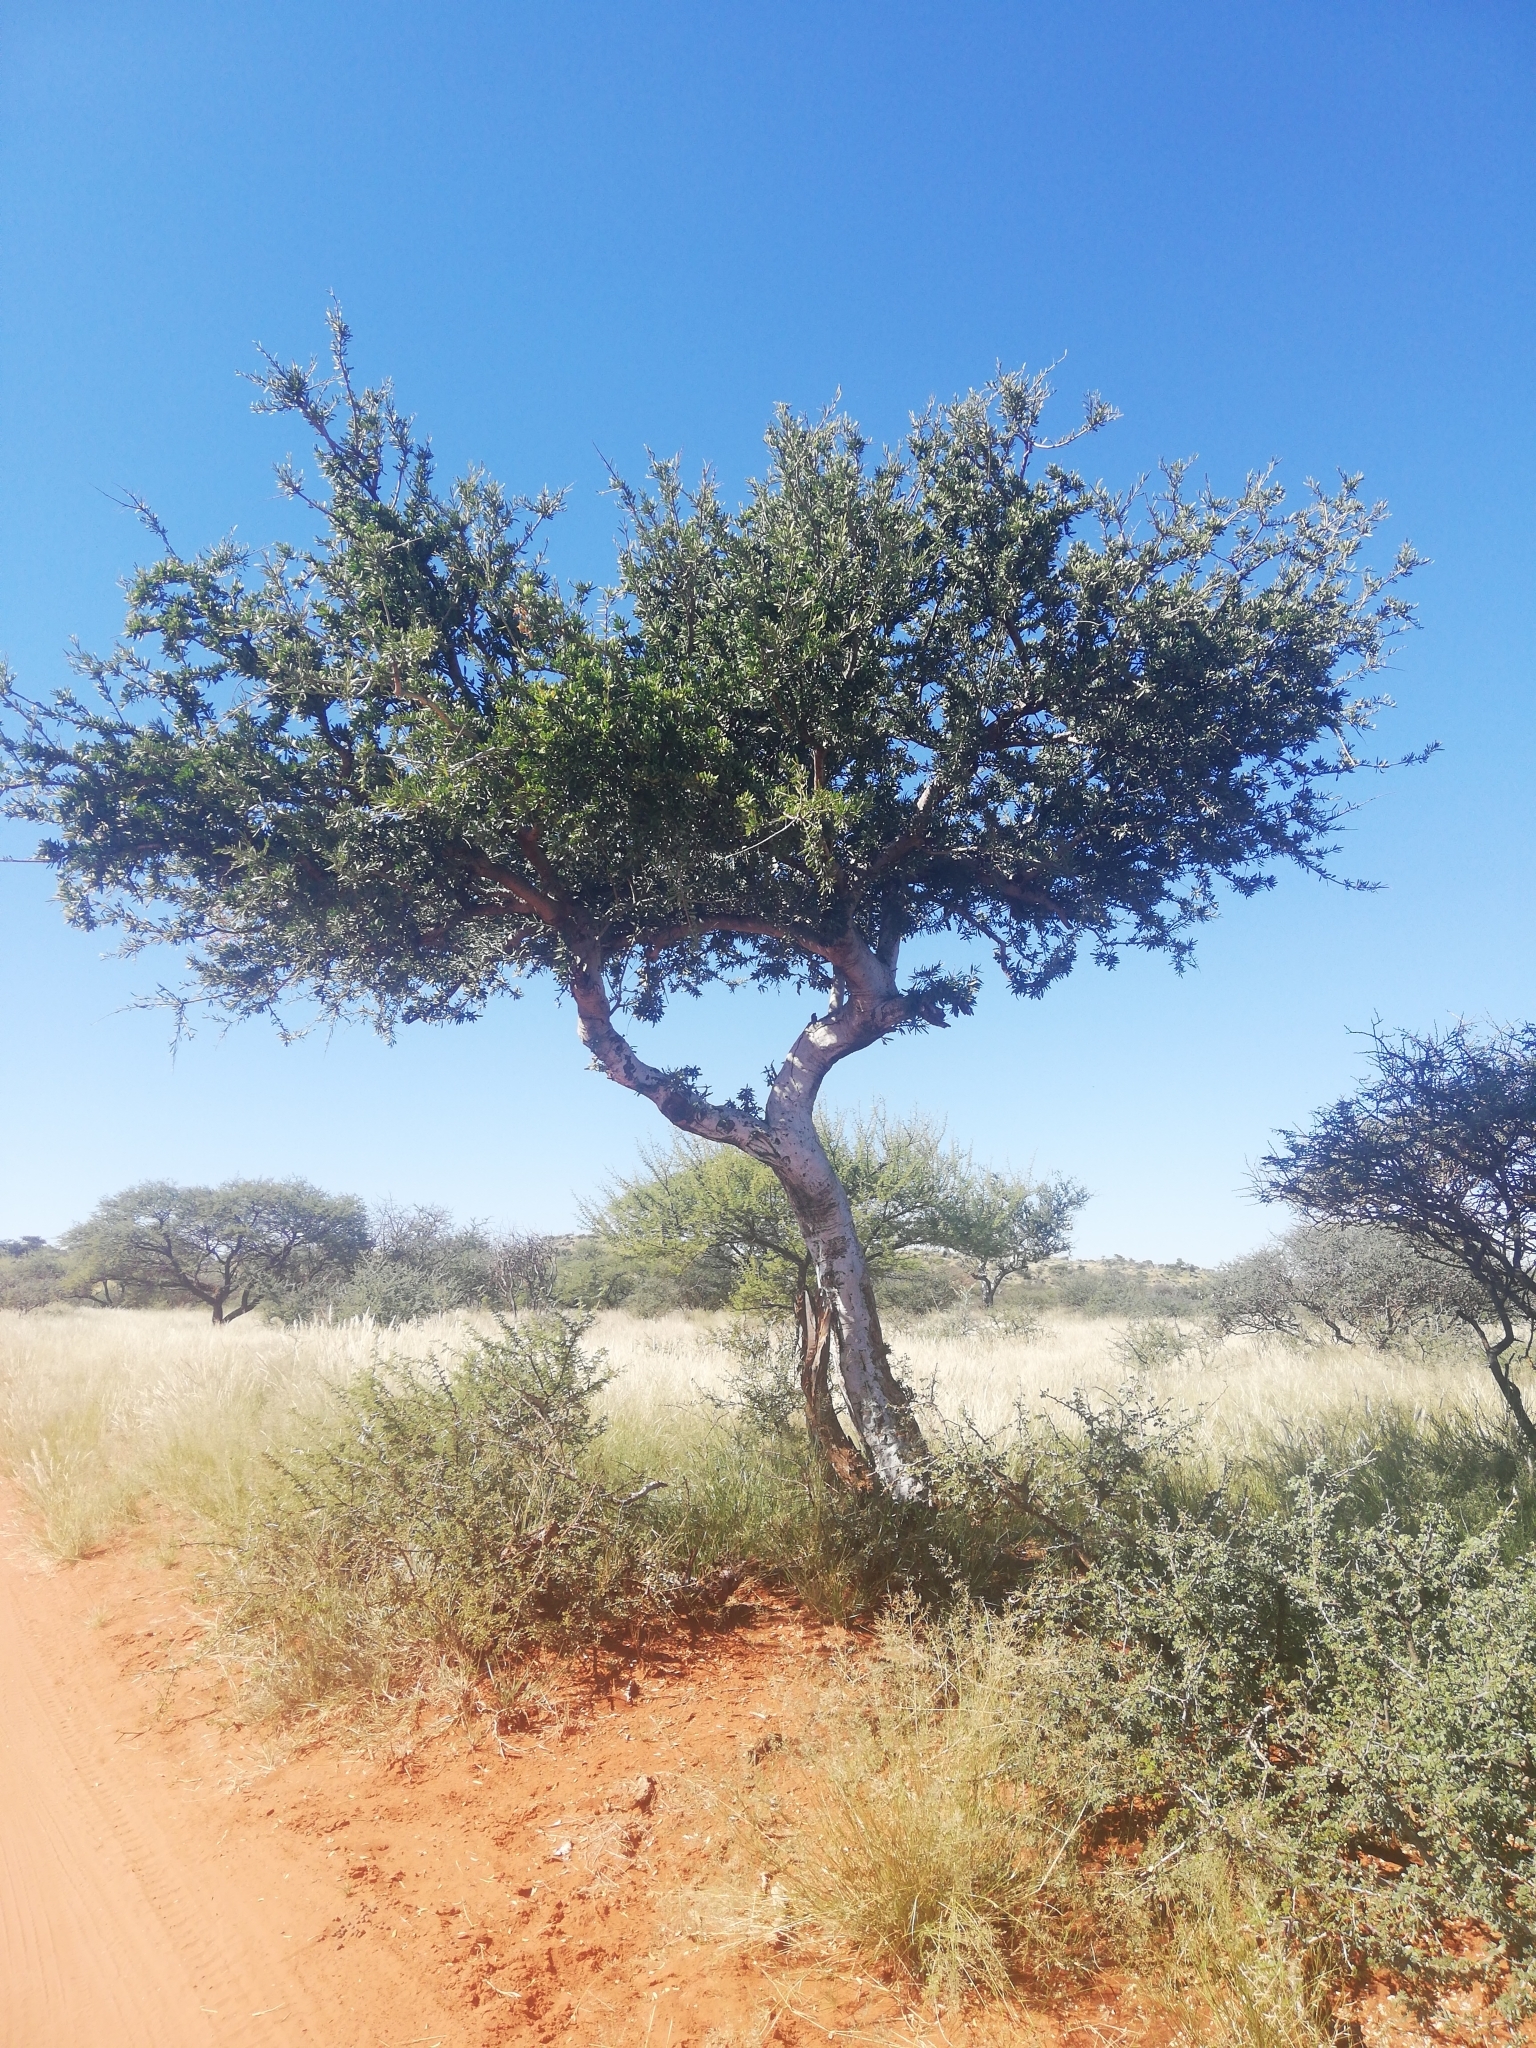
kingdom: Plantae
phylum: Tracheophyta
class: Magnoliopsida
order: Brassicales
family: Capparaceae
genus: Boscia
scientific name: Boscia albitrunca
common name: Caper bush
